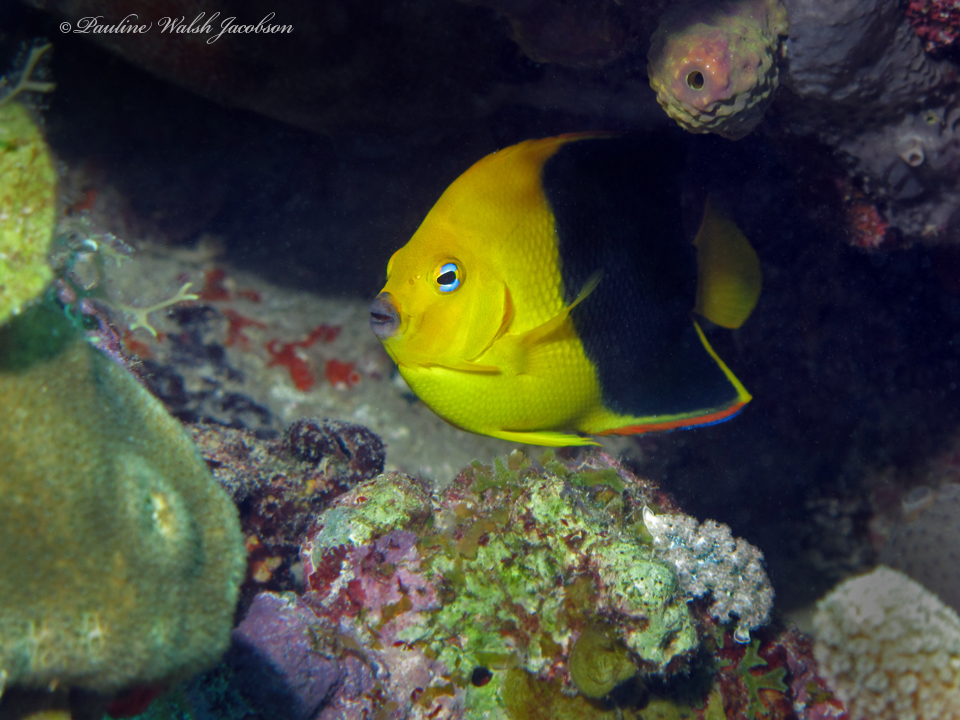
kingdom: Animalia
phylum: Chordata
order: Perciformes
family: Pomacanthidae
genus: Holacanthus
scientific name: Holacanthus tricolor
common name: Rock beauty
